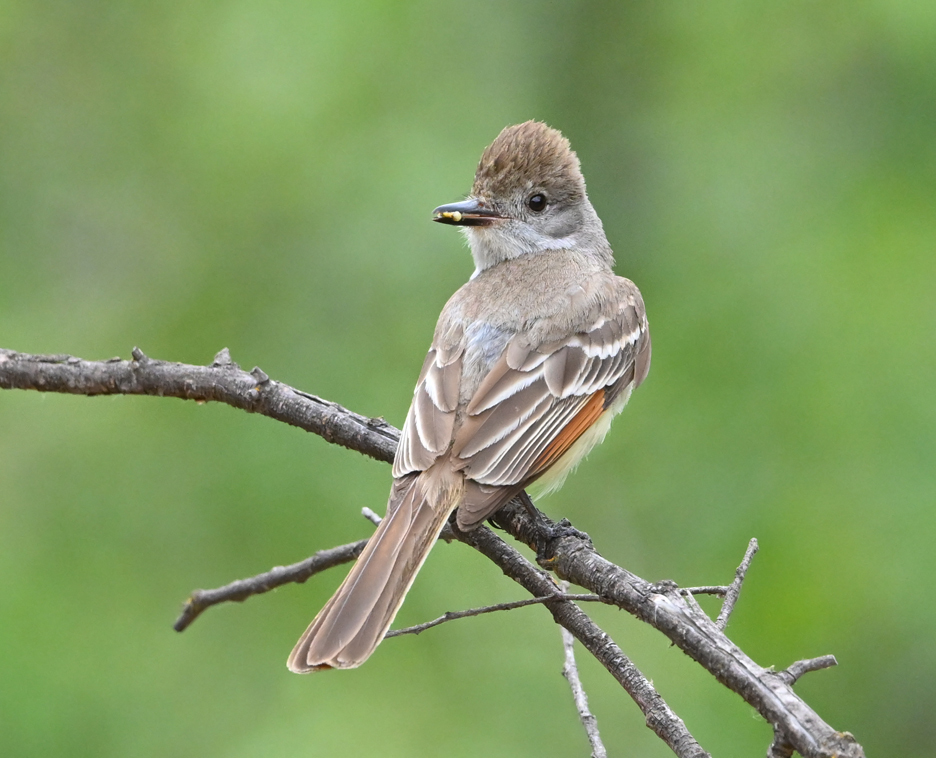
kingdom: Animalia
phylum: Chordata
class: Aves
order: Passeriformes
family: Tyrannidae
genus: Myiarchus
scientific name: Myiarchus cinerascens
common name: Ash-throated flycatcher
